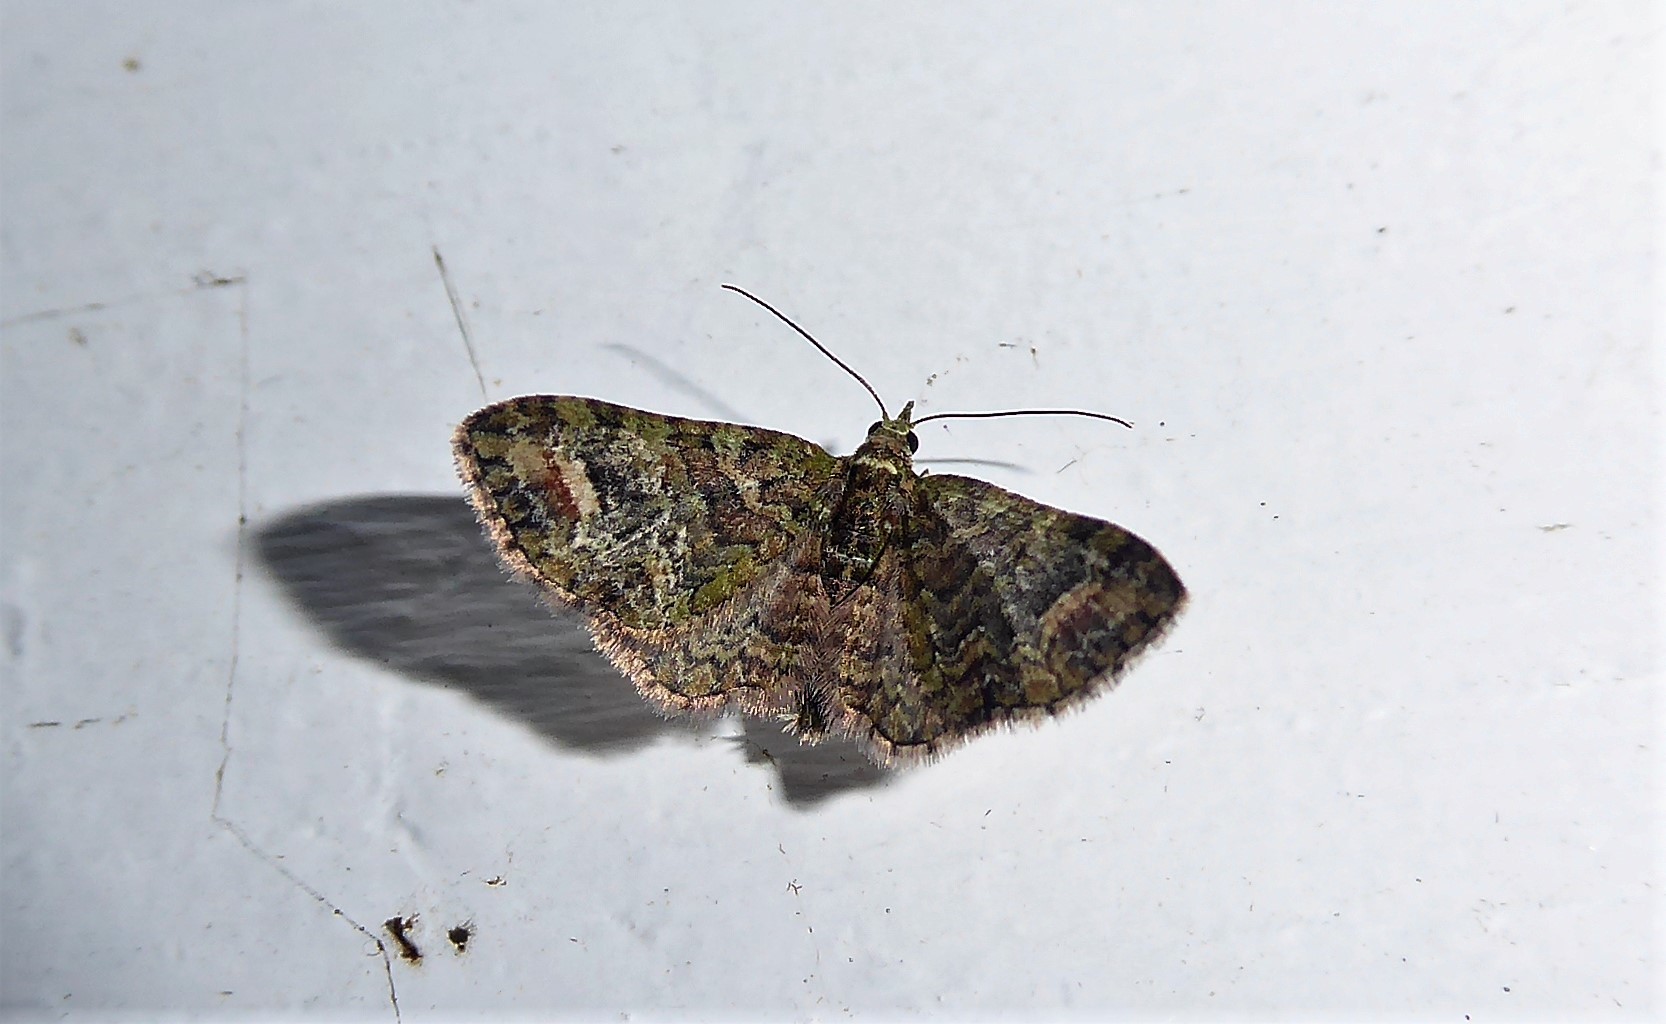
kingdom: Animalia
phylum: Arthropoda
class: Insecta
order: Lepidoptera
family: Geometridae
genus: Idaea
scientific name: Idaea mutanda
